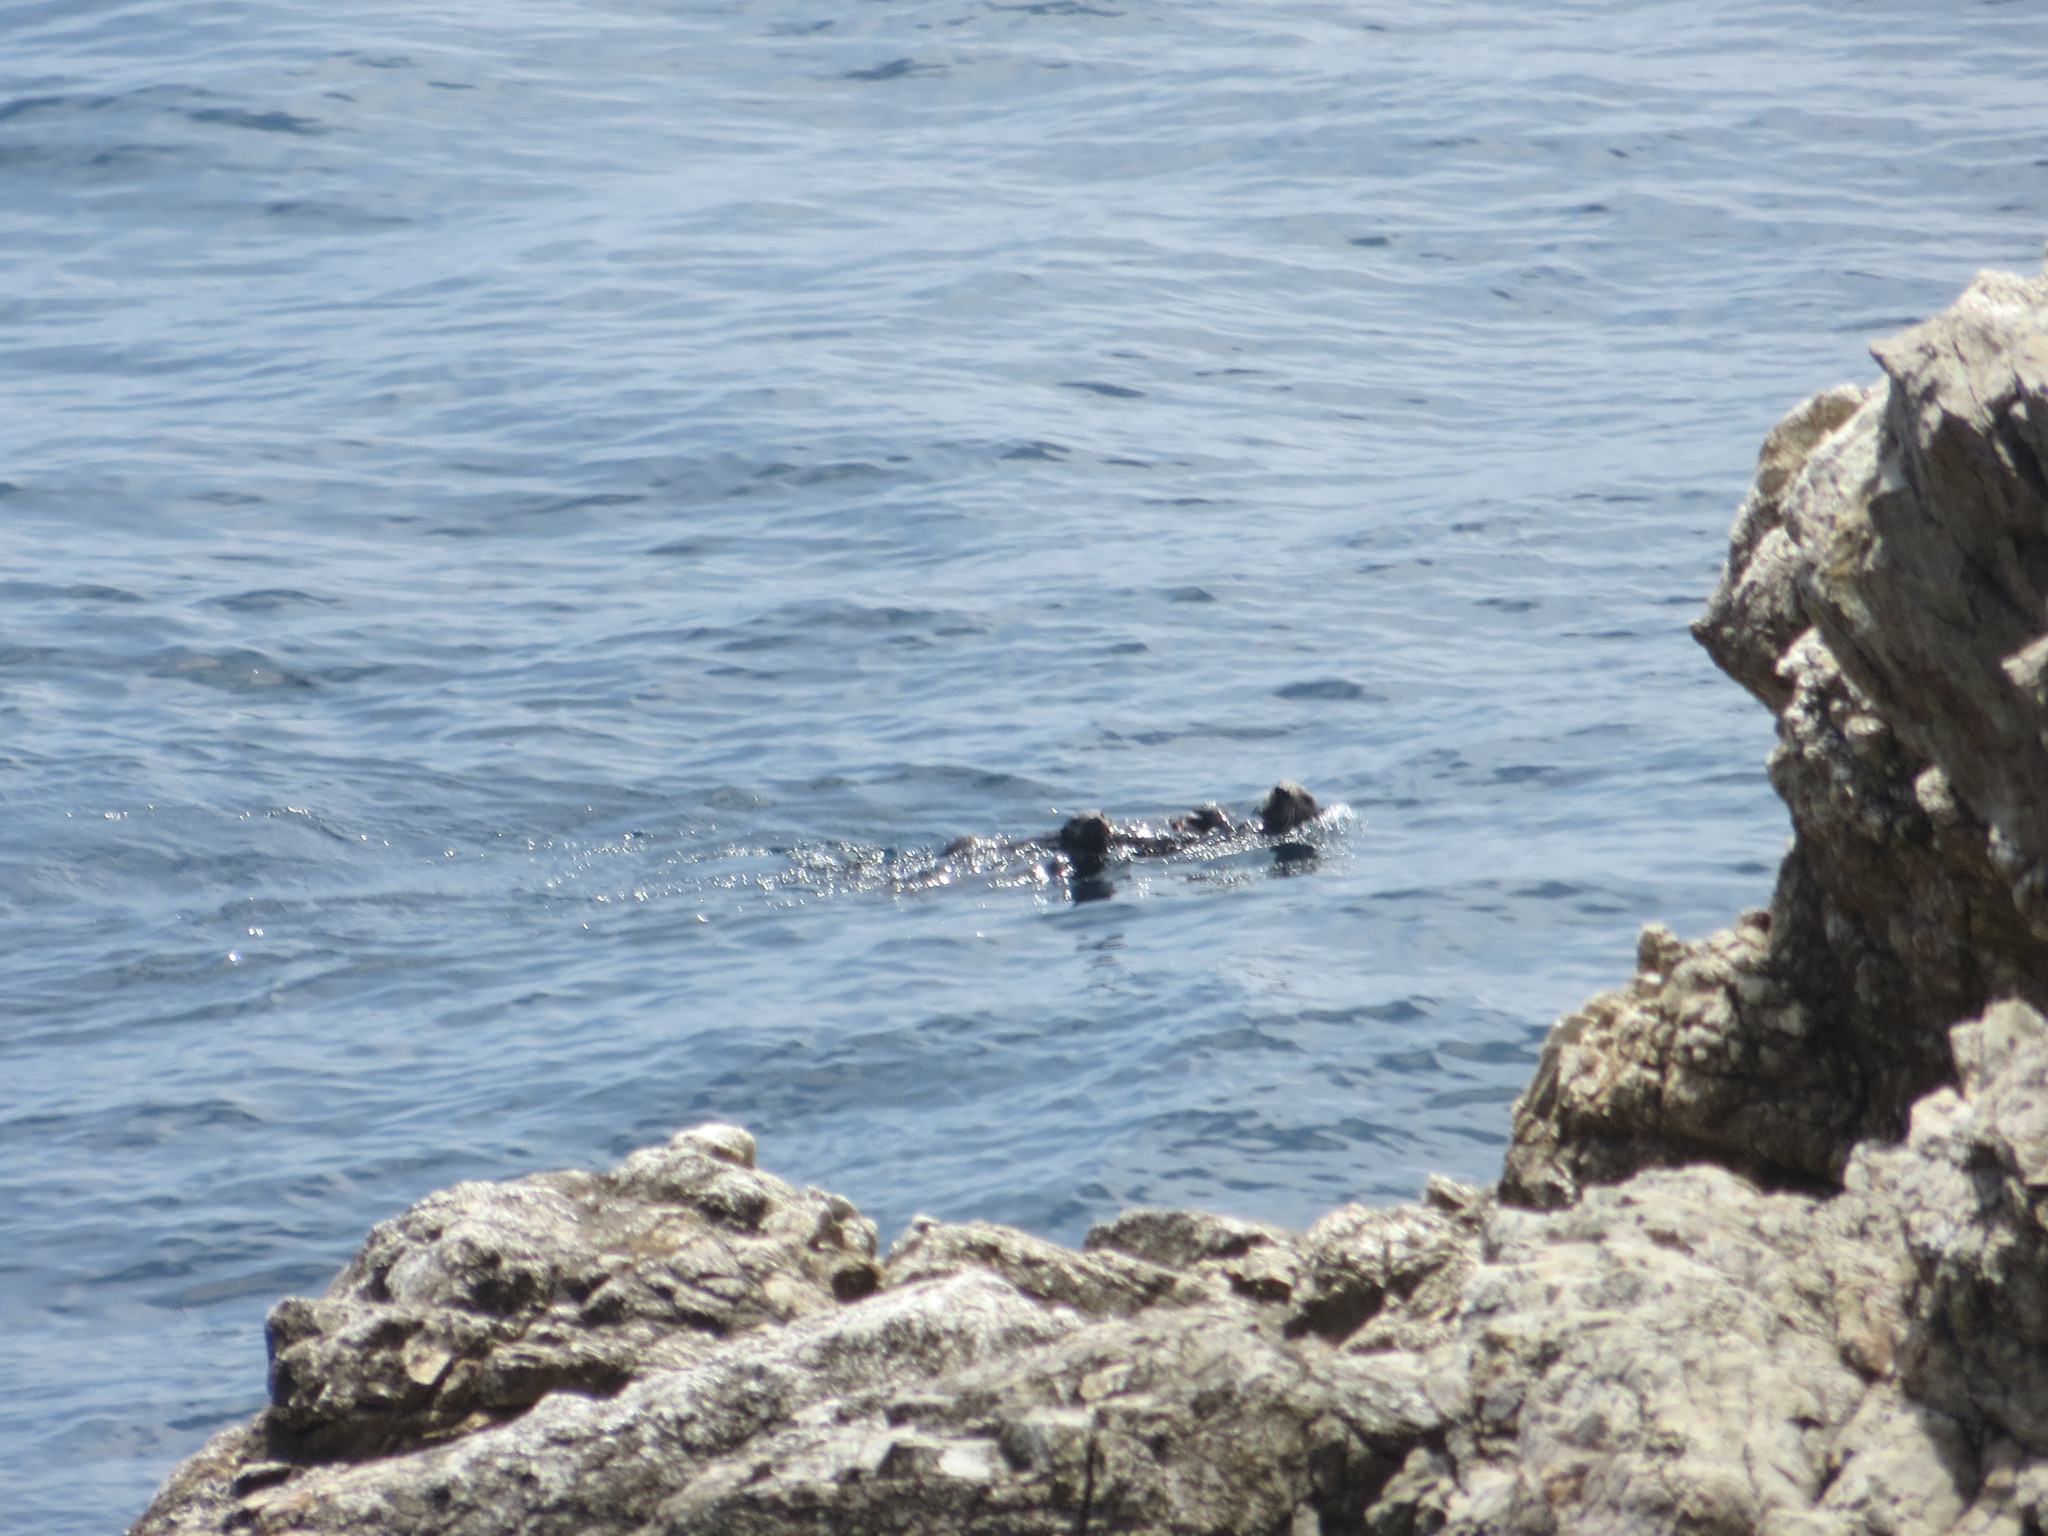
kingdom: Animalia
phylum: Chordata
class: Mammalia
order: Carnivora
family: Mustelidae
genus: Enhydra
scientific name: Enhydra lutris
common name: Sea otter
